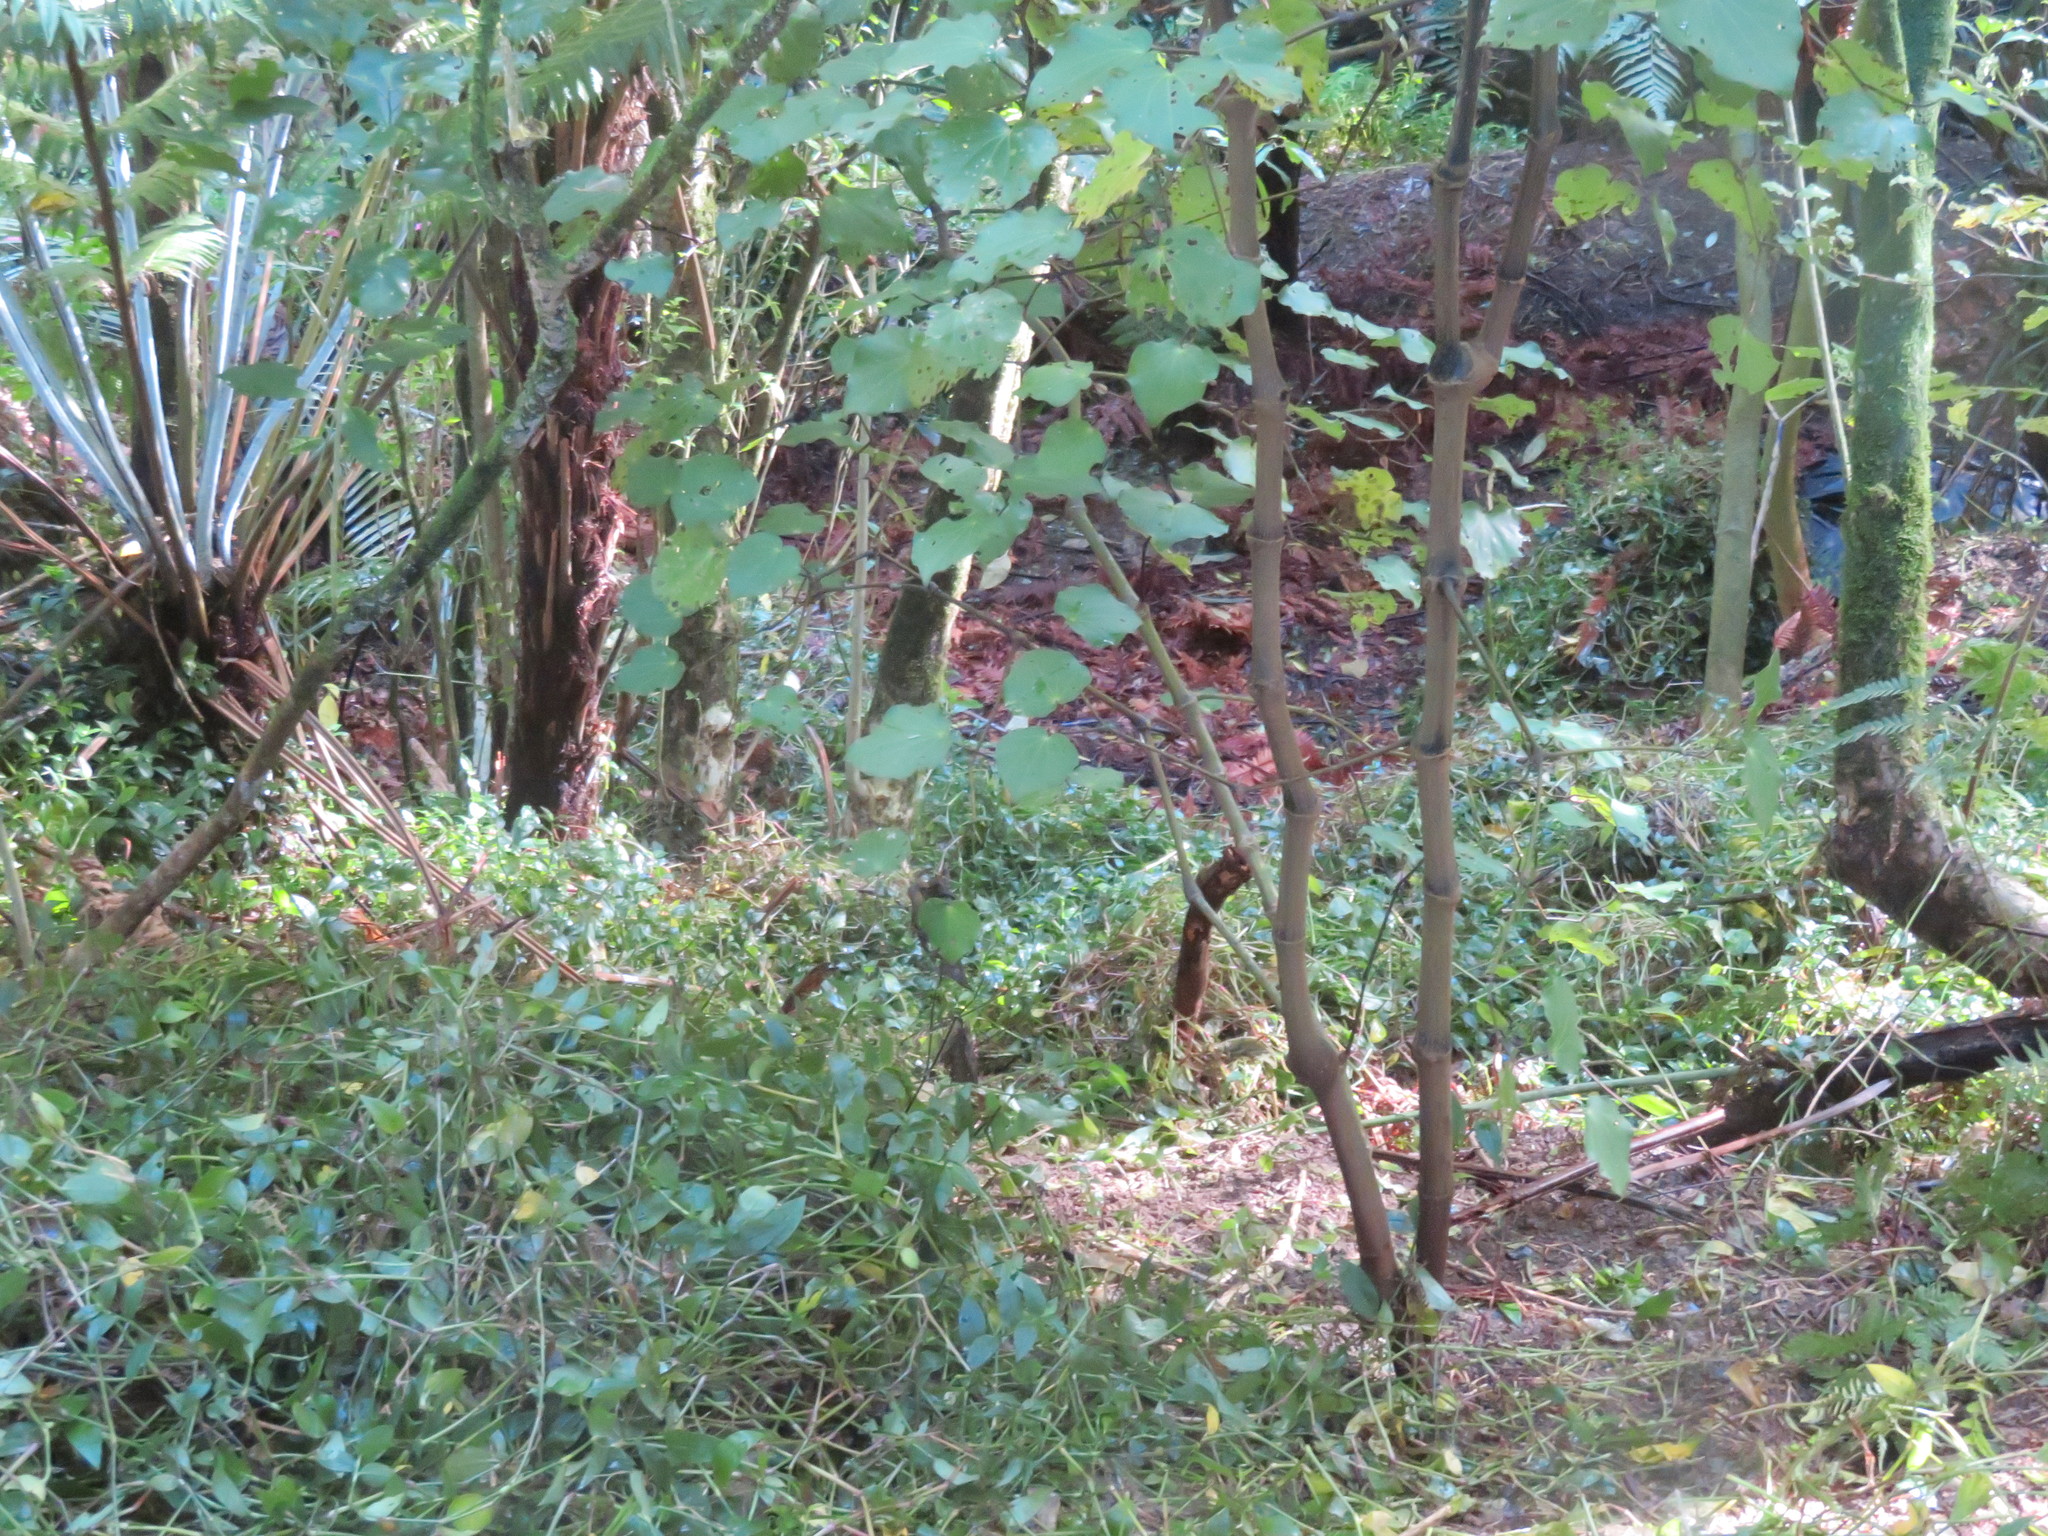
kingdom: Plantae
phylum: Tracheophyta
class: Magnoliopsida
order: Piperales
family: Piperaceae
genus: Macropiper
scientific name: Macropiper excelsum
